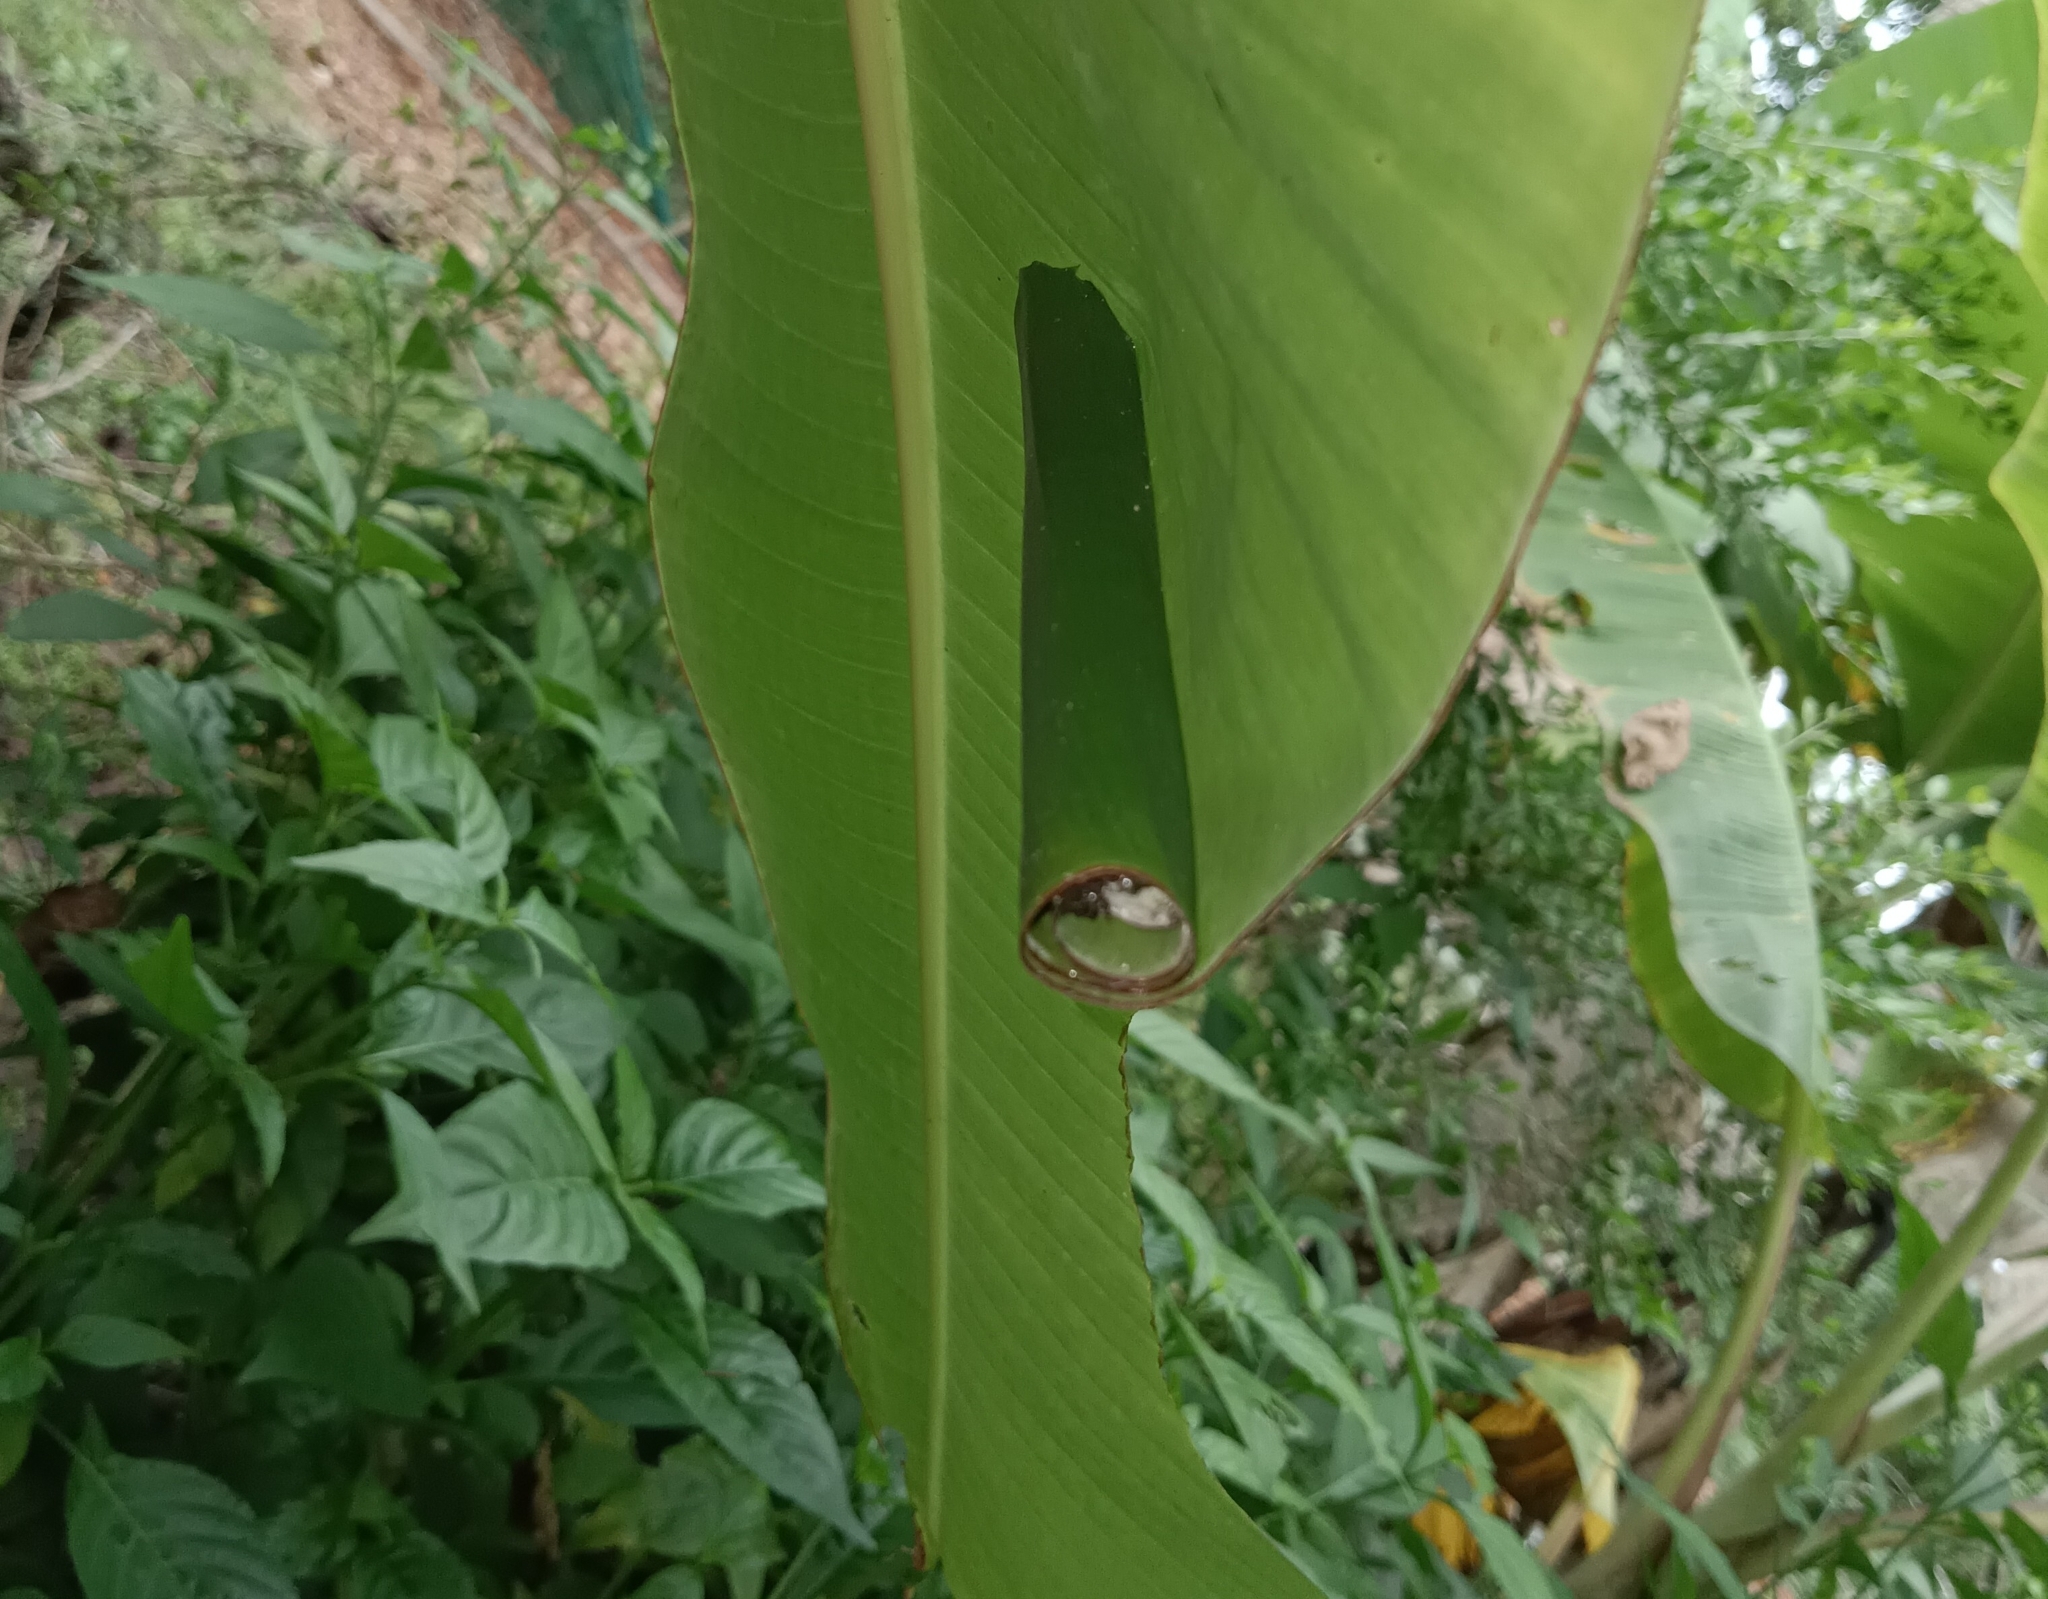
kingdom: Animalia
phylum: Arthropoda
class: Insecta
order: Lepidoptera
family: Hesperiidae
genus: Erionota
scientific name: Erionota torus
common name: Rounded palm-redeye
